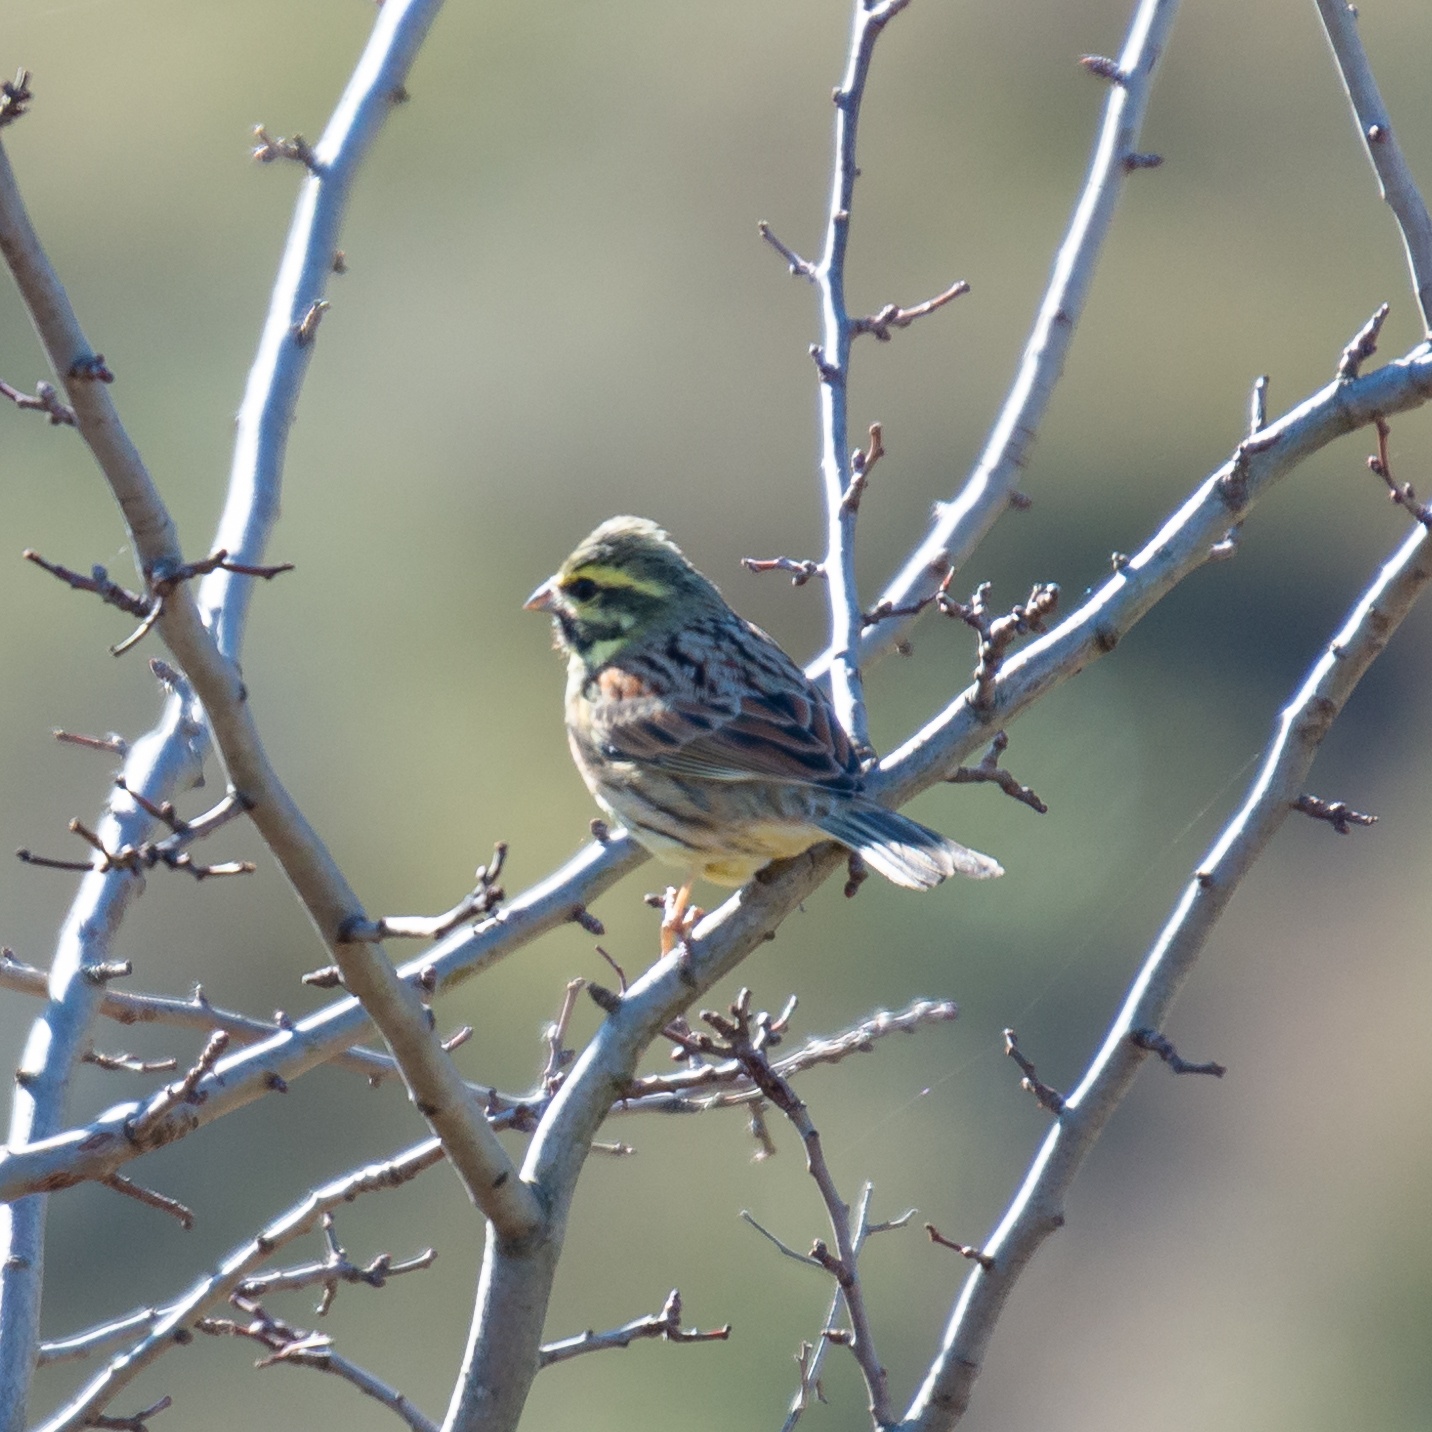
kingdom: Animalia
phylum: Chordata
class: Aves
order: Passeriformes
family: Emberizidae
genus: Emberiza
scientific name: Emberiza cirlus
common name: Cirl bunting
